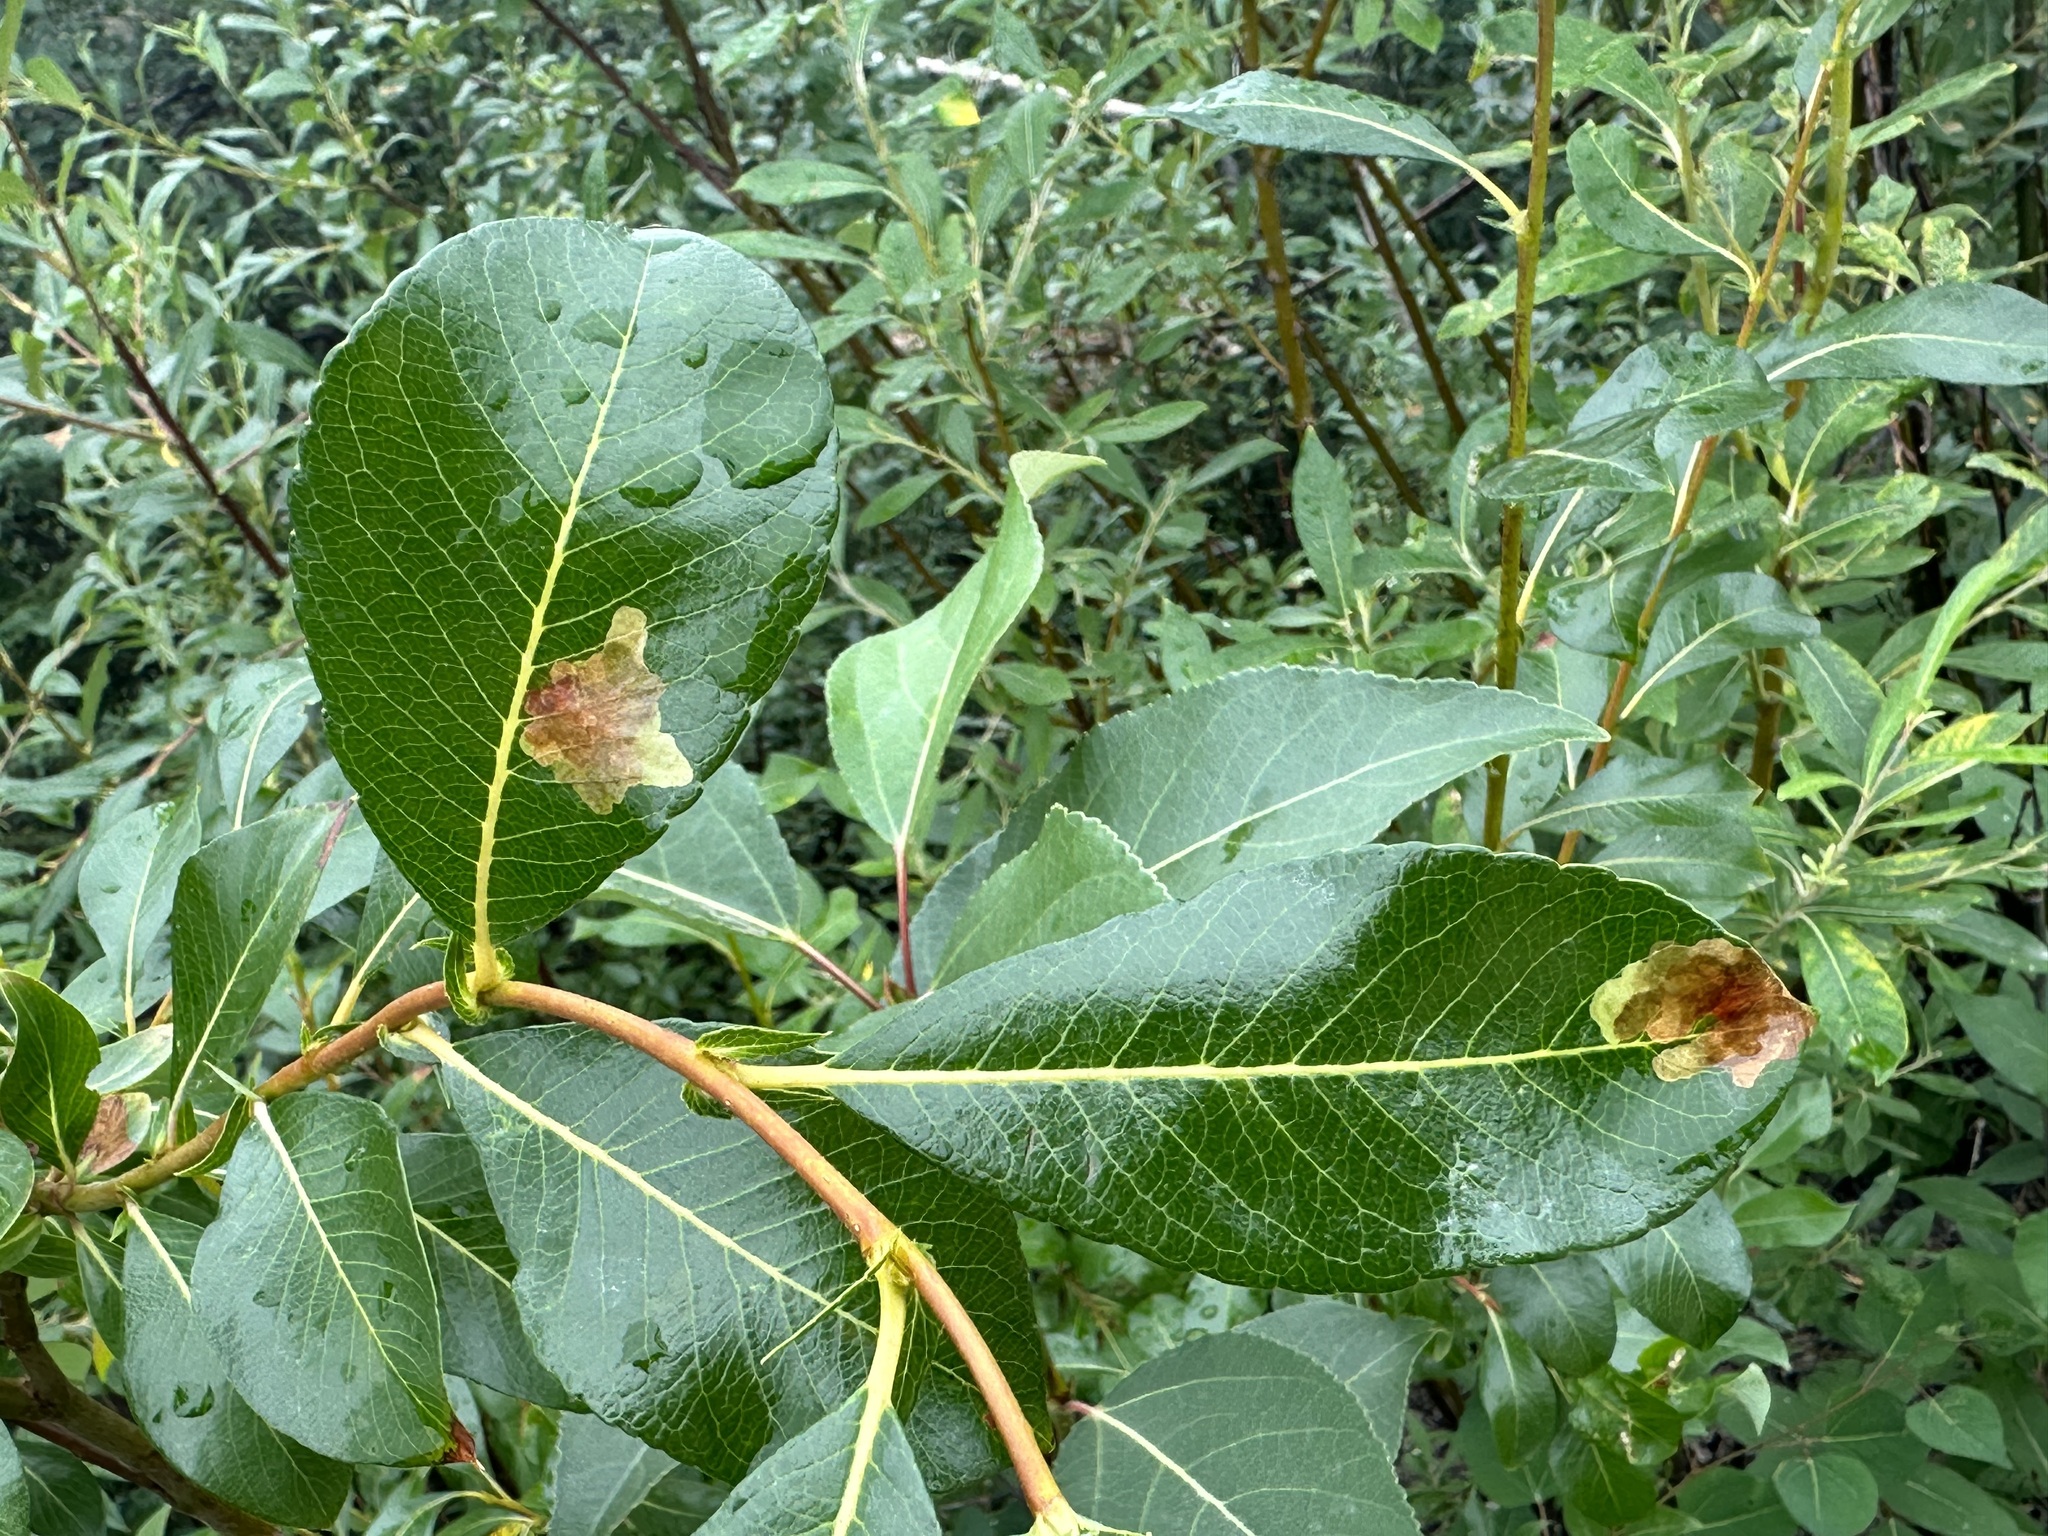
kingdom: Animalia
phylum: Arthropoda
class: Insecta
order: Lepidoptera
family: Gracillariidae
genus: Micrurapteryx
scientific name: Micrurapteryx salicifoliella
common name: Willow leaf blotch miner moth
